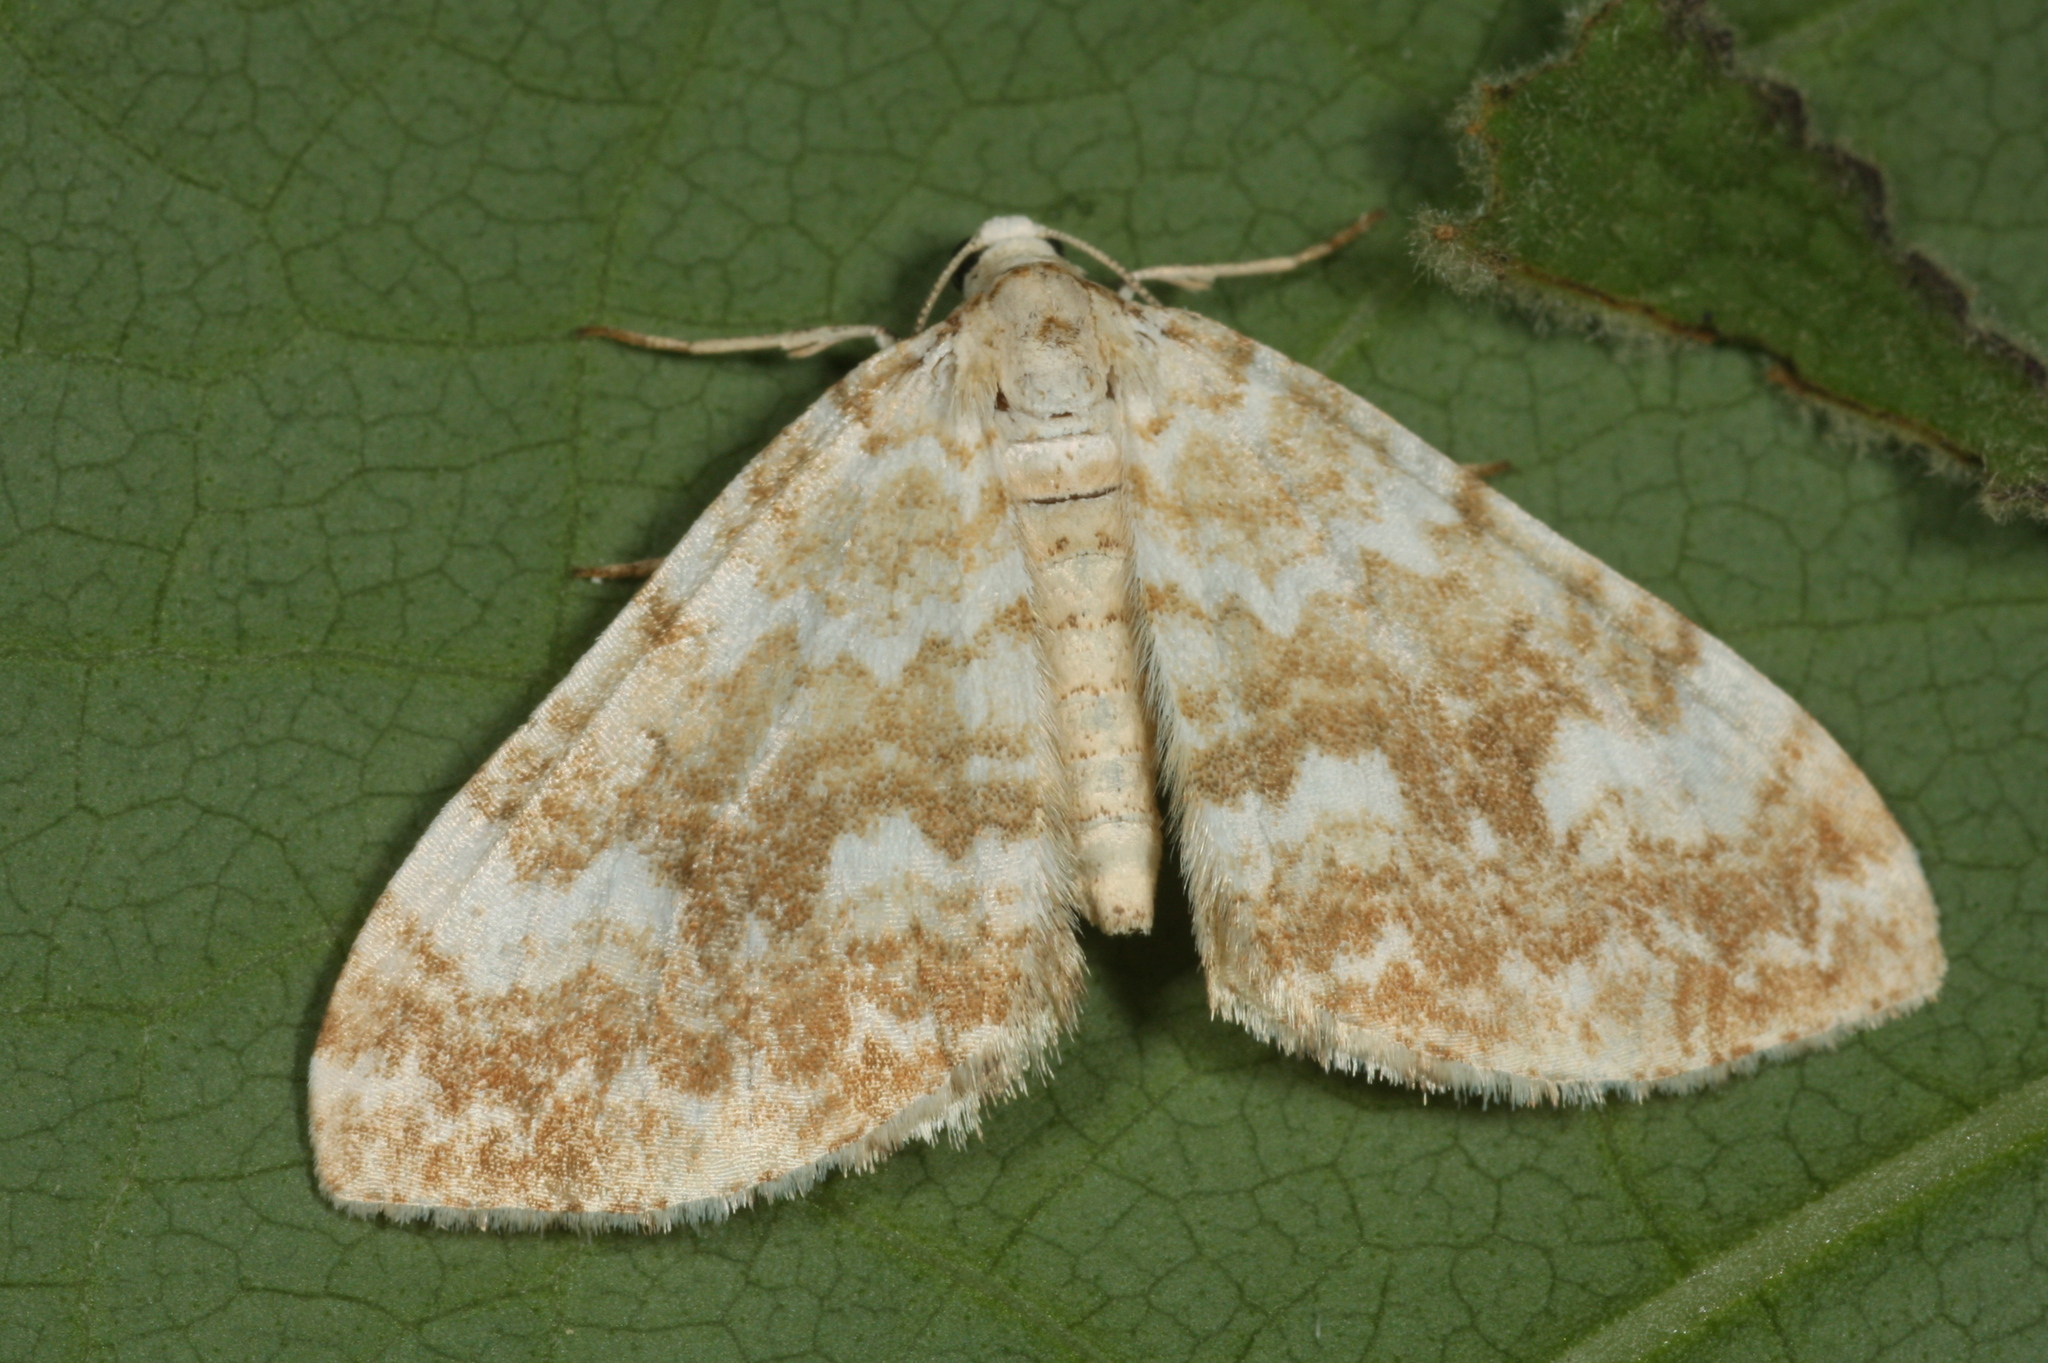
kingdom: Animalia
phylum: Arthropoda
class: Insecta
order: Lepidoptera
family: Geometridae
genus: Perizoma
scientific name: Perizoma flavofasciata
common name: Sandy carpet
